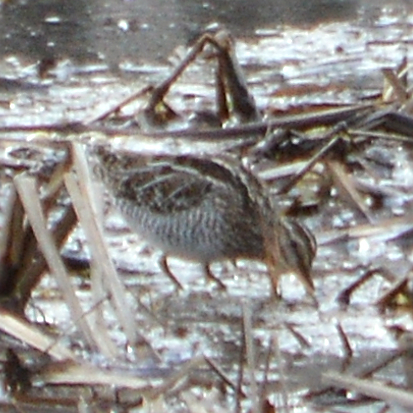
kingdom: Animalia
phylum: Chordata
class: Aves
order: Charadriiformes
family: Scolopacidae
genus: Gallinago
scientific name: Gallinago delicata
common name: Wilson's snipe
